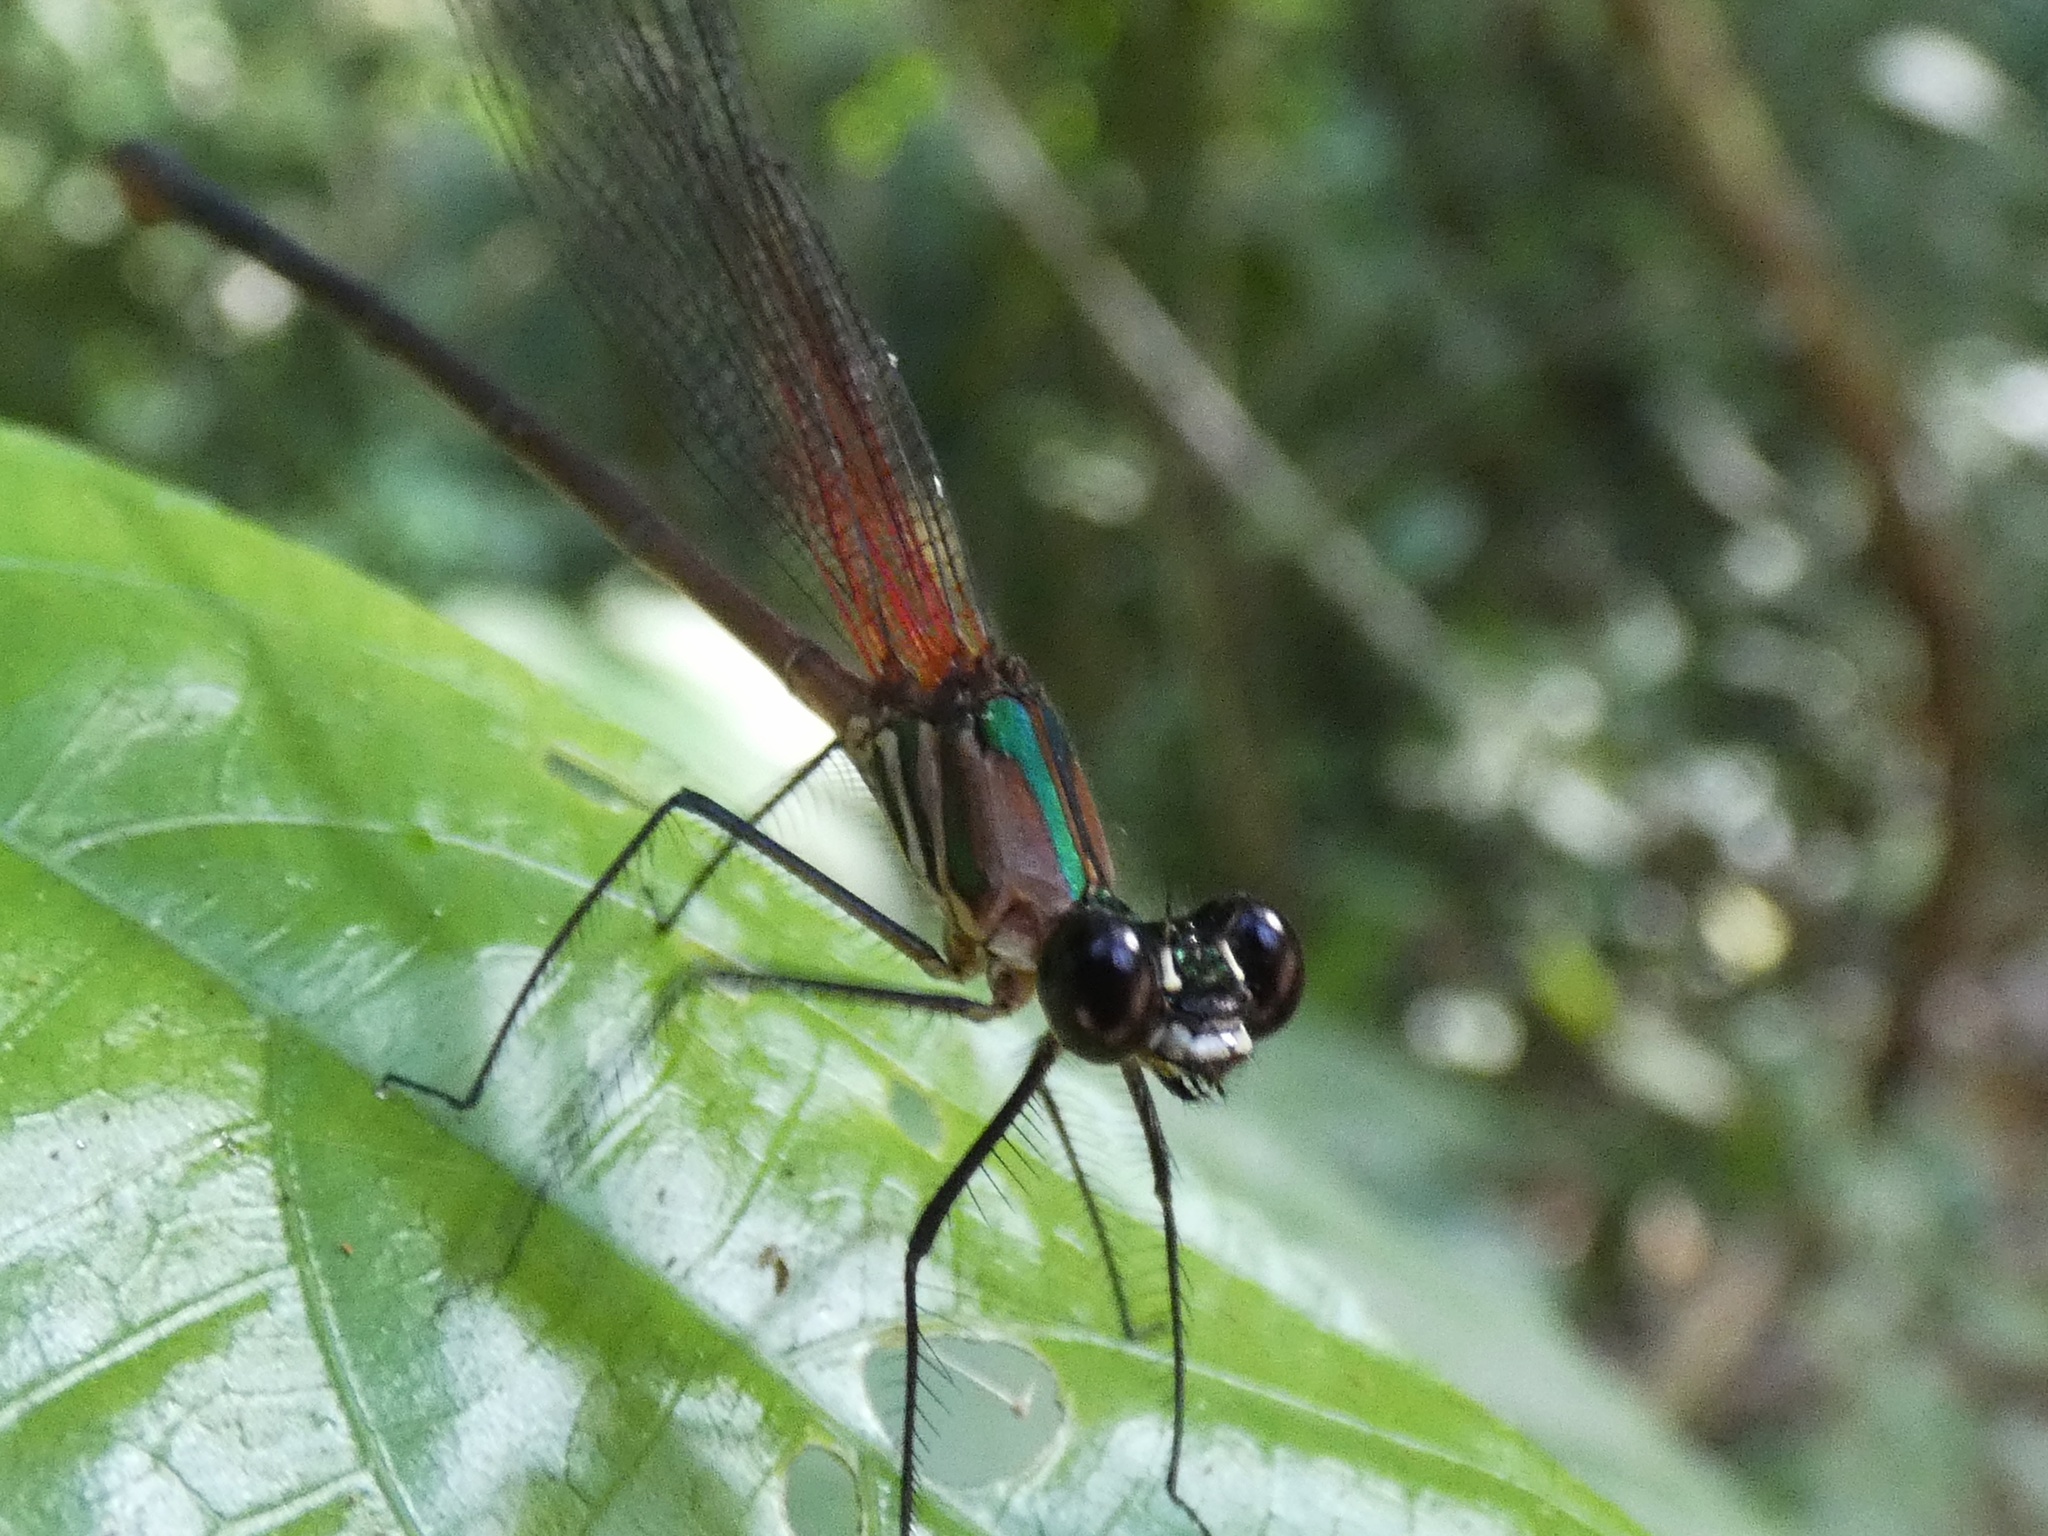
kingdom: Animalia
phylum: Arthropoda
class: Insecta
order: Odonata
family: Calopterygidae
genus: Hetaerina
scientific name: Hetaerina caja
